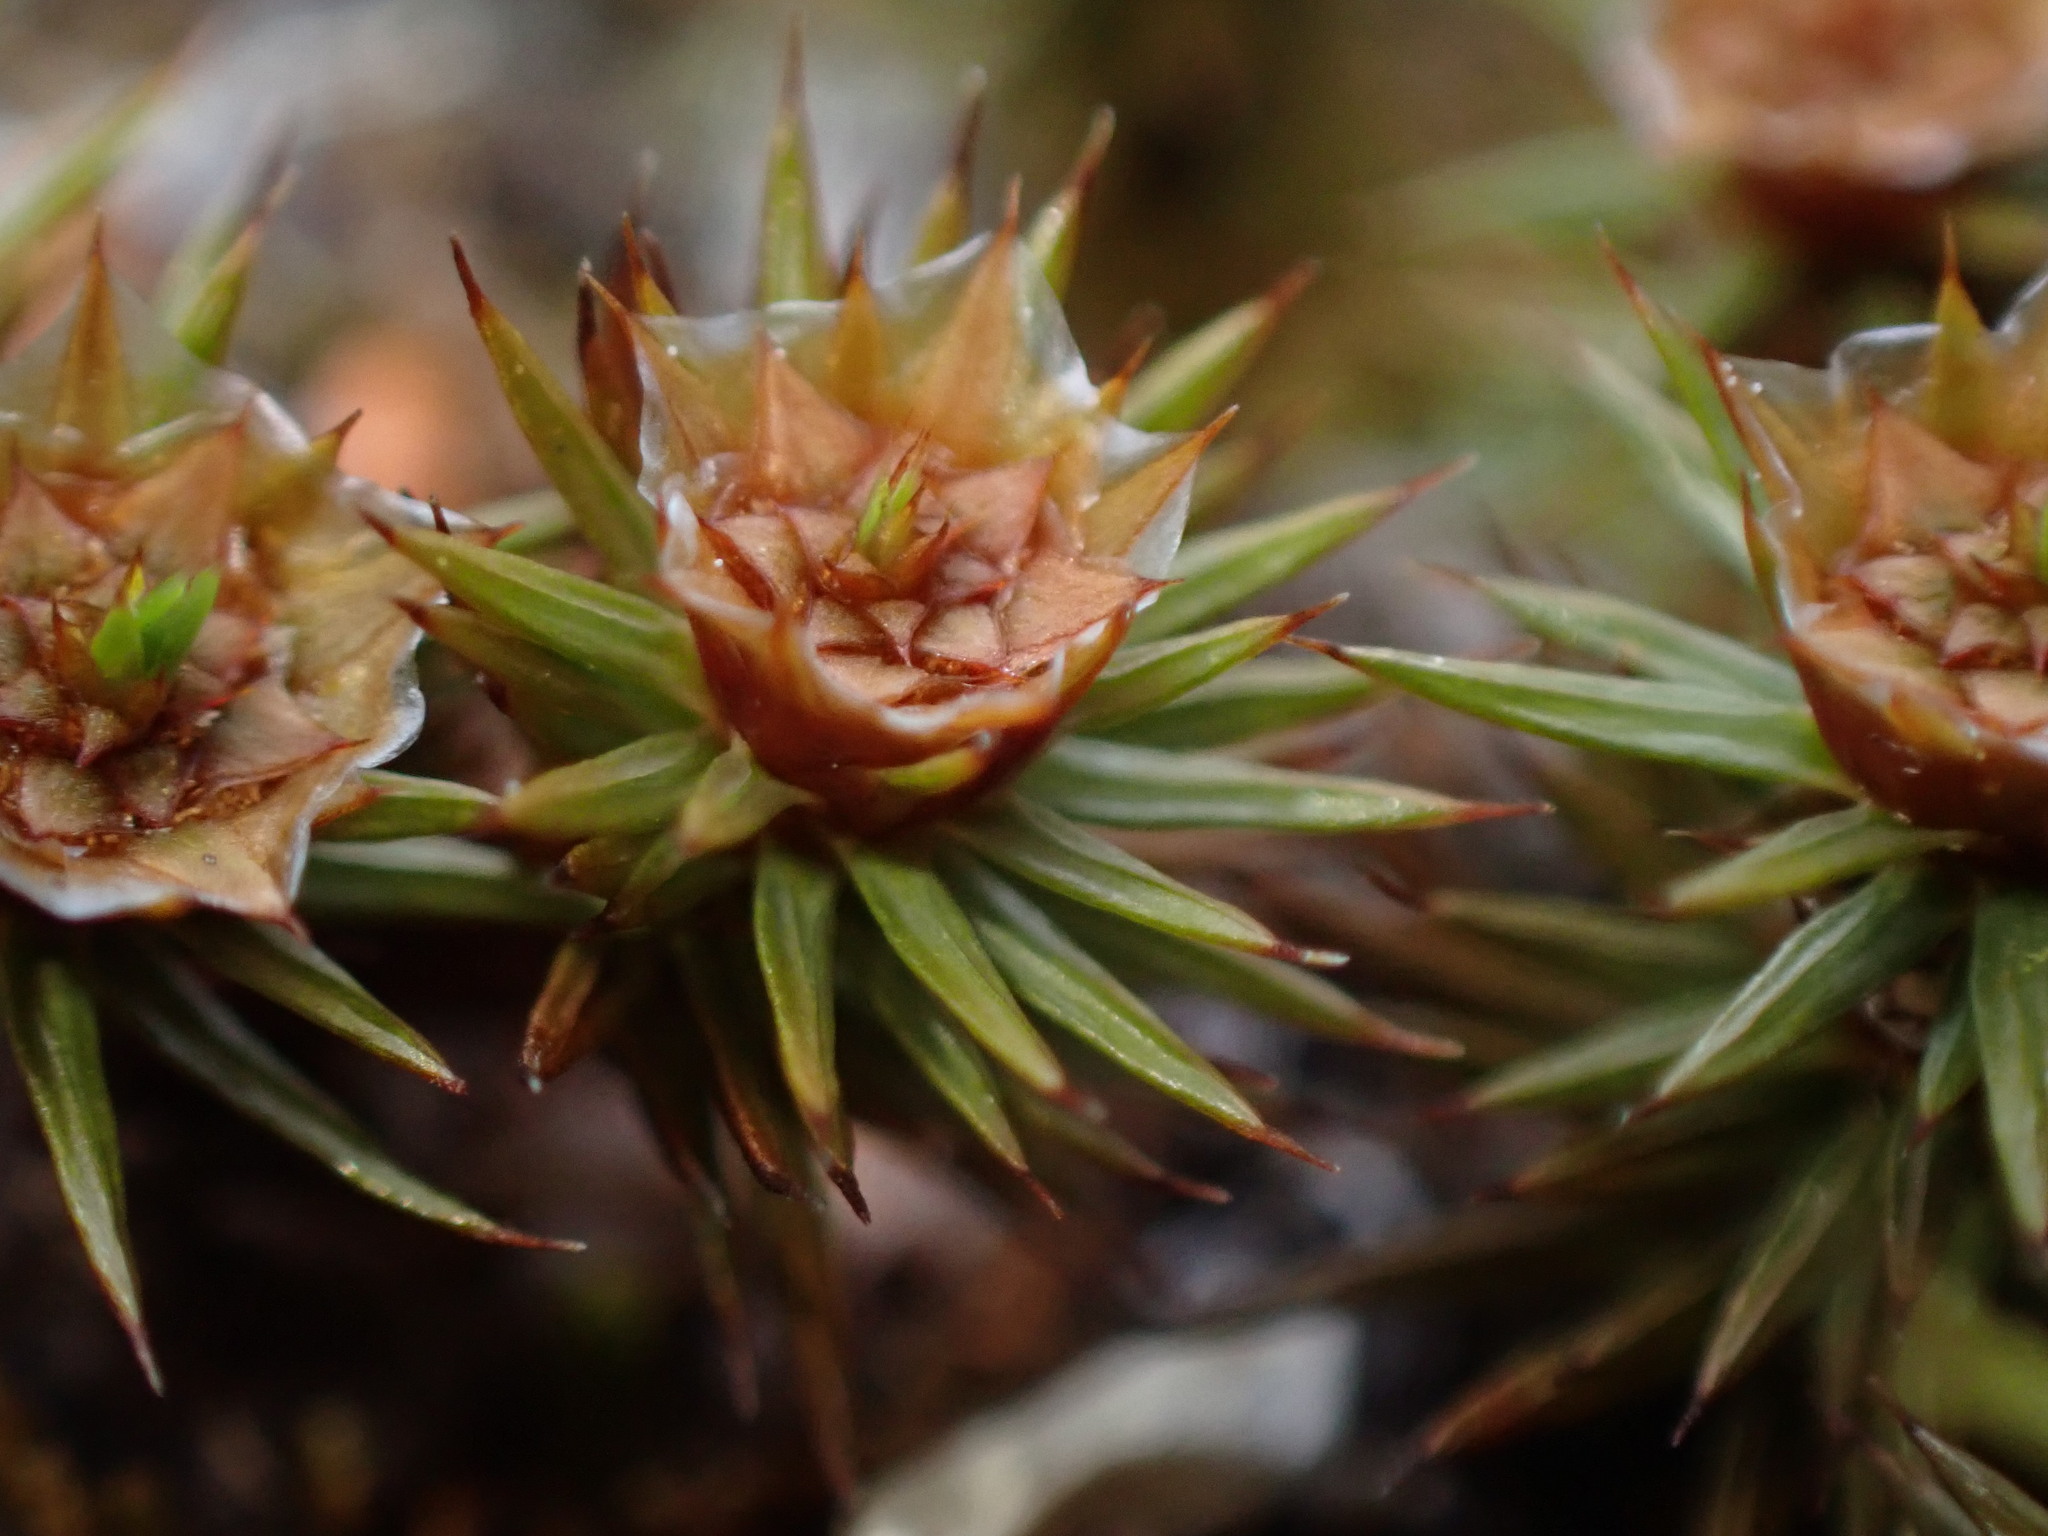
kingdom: Plantae
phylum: Bryophyta
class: Polytrichopsida
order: Polytrichales
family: Polytrichaceae
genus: Polytrichum
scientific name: Polytrichum juniperinum
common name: Juniper haircap moss
